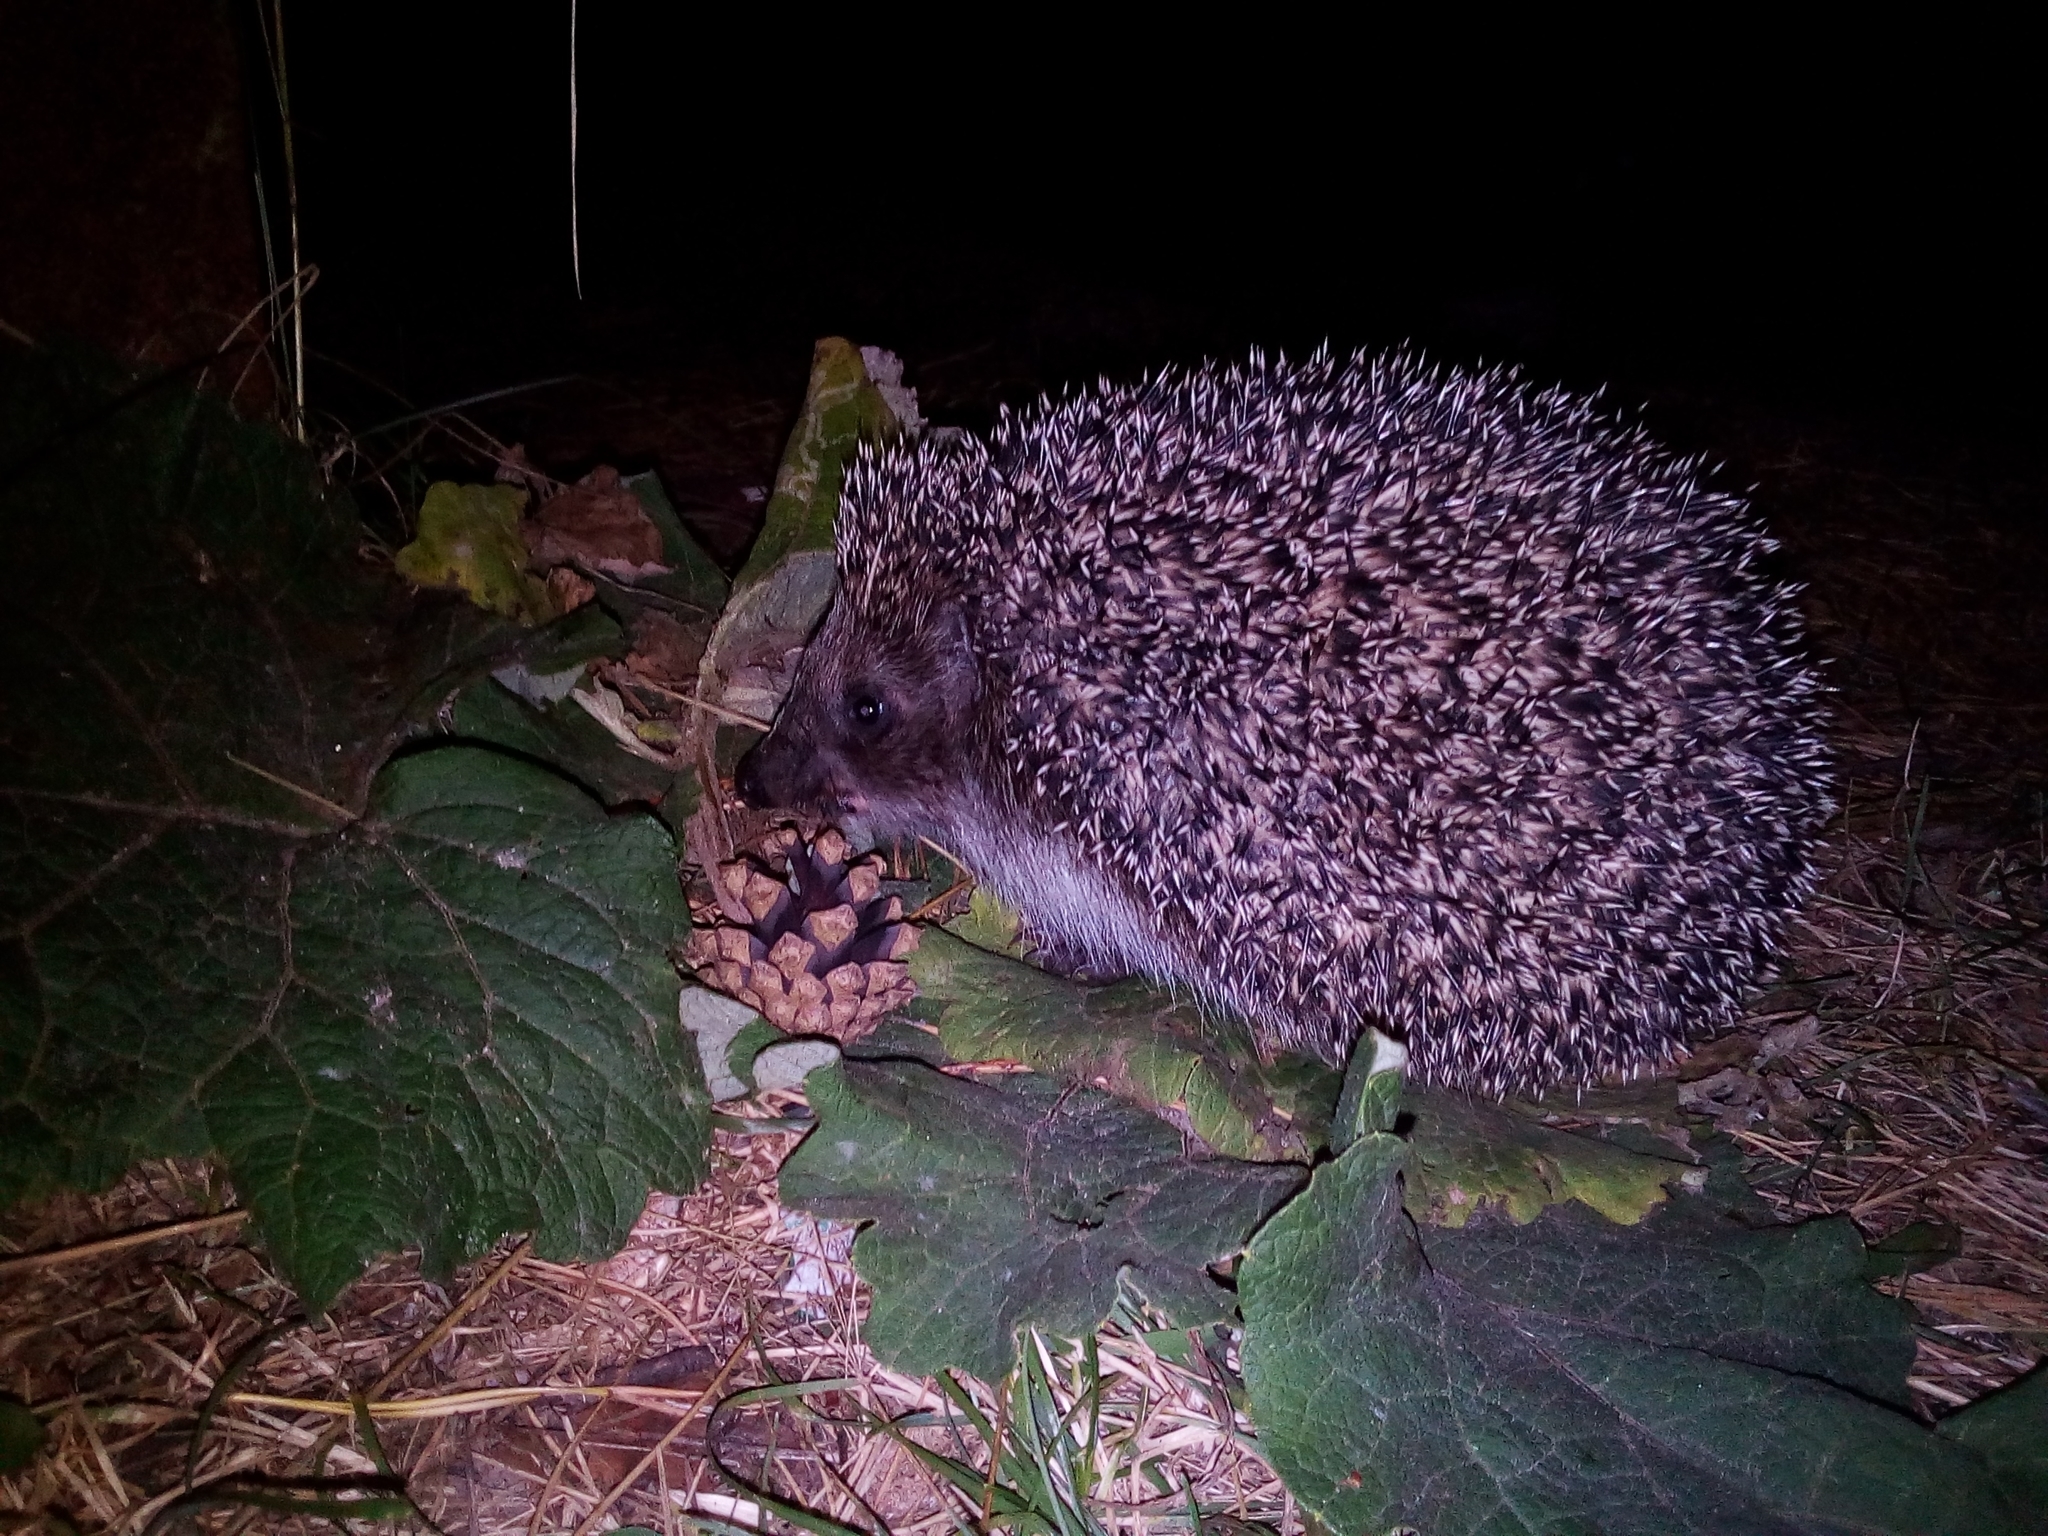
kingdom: Animalia
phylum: Chordata
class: Mammalia
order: Erinaceomorpha
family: Erinaceidae
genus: Erinaceus
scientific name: Erinaceus roumanicus
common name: Northern white-breasted hedgehog
